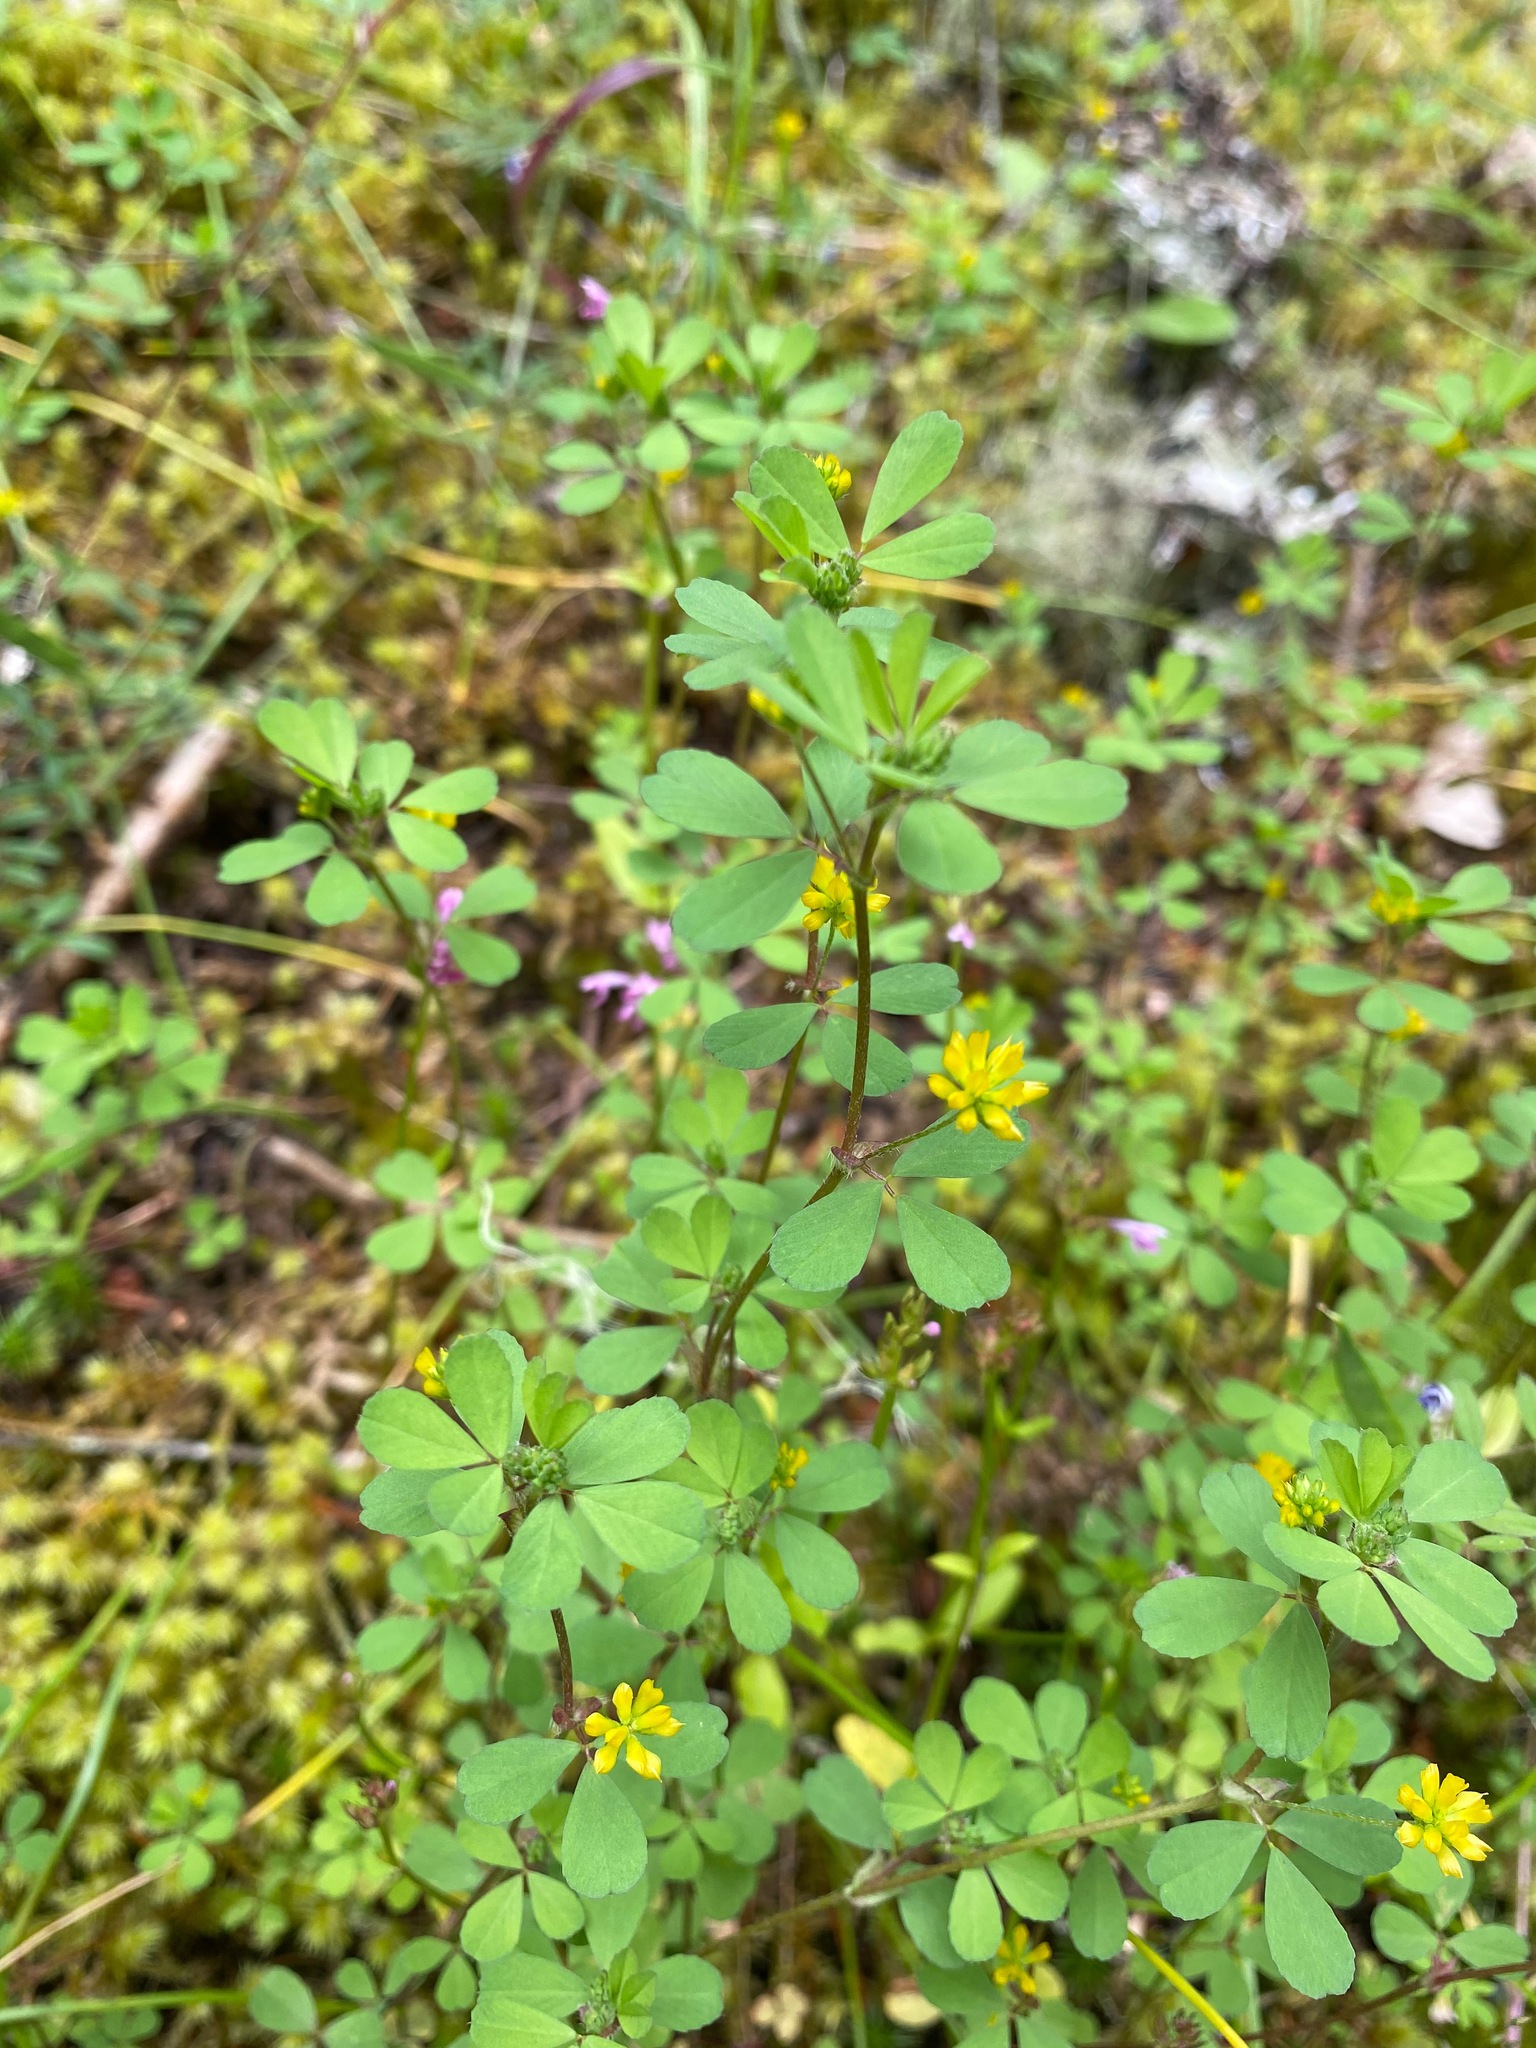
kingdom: Plantae
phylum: Tracheophyta
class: Magnoliopsida
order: Fabales
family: Fabaceae
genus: Trifolium
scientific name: Trifolium dubium
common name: Suckling clover
